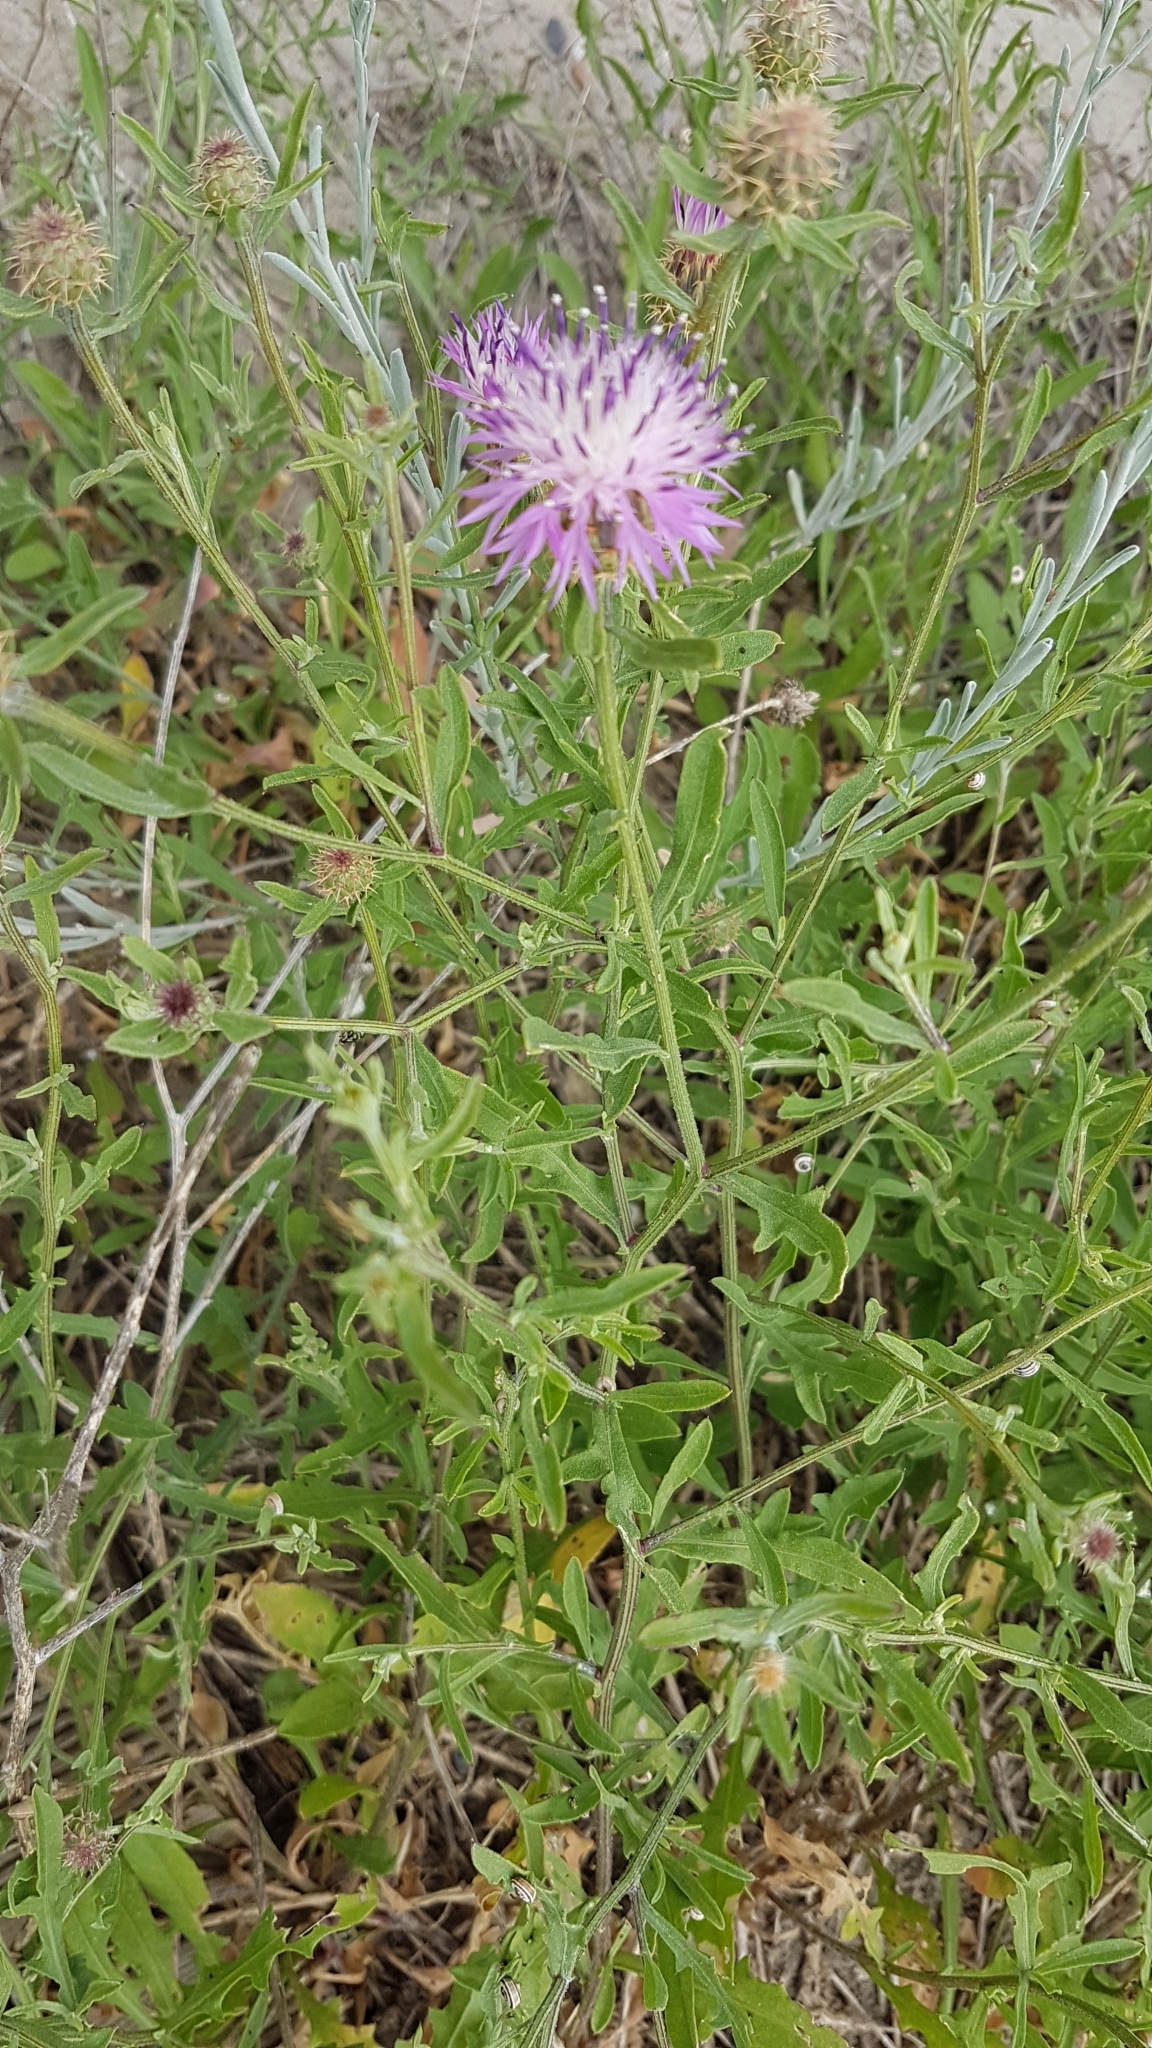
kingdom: Plantae
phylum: Tracheophyta
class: Magnoliopsida
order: Asterales
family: Asteraceae
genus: Centaurea
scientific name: Centaurea aspera
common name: Rough star-thistle
